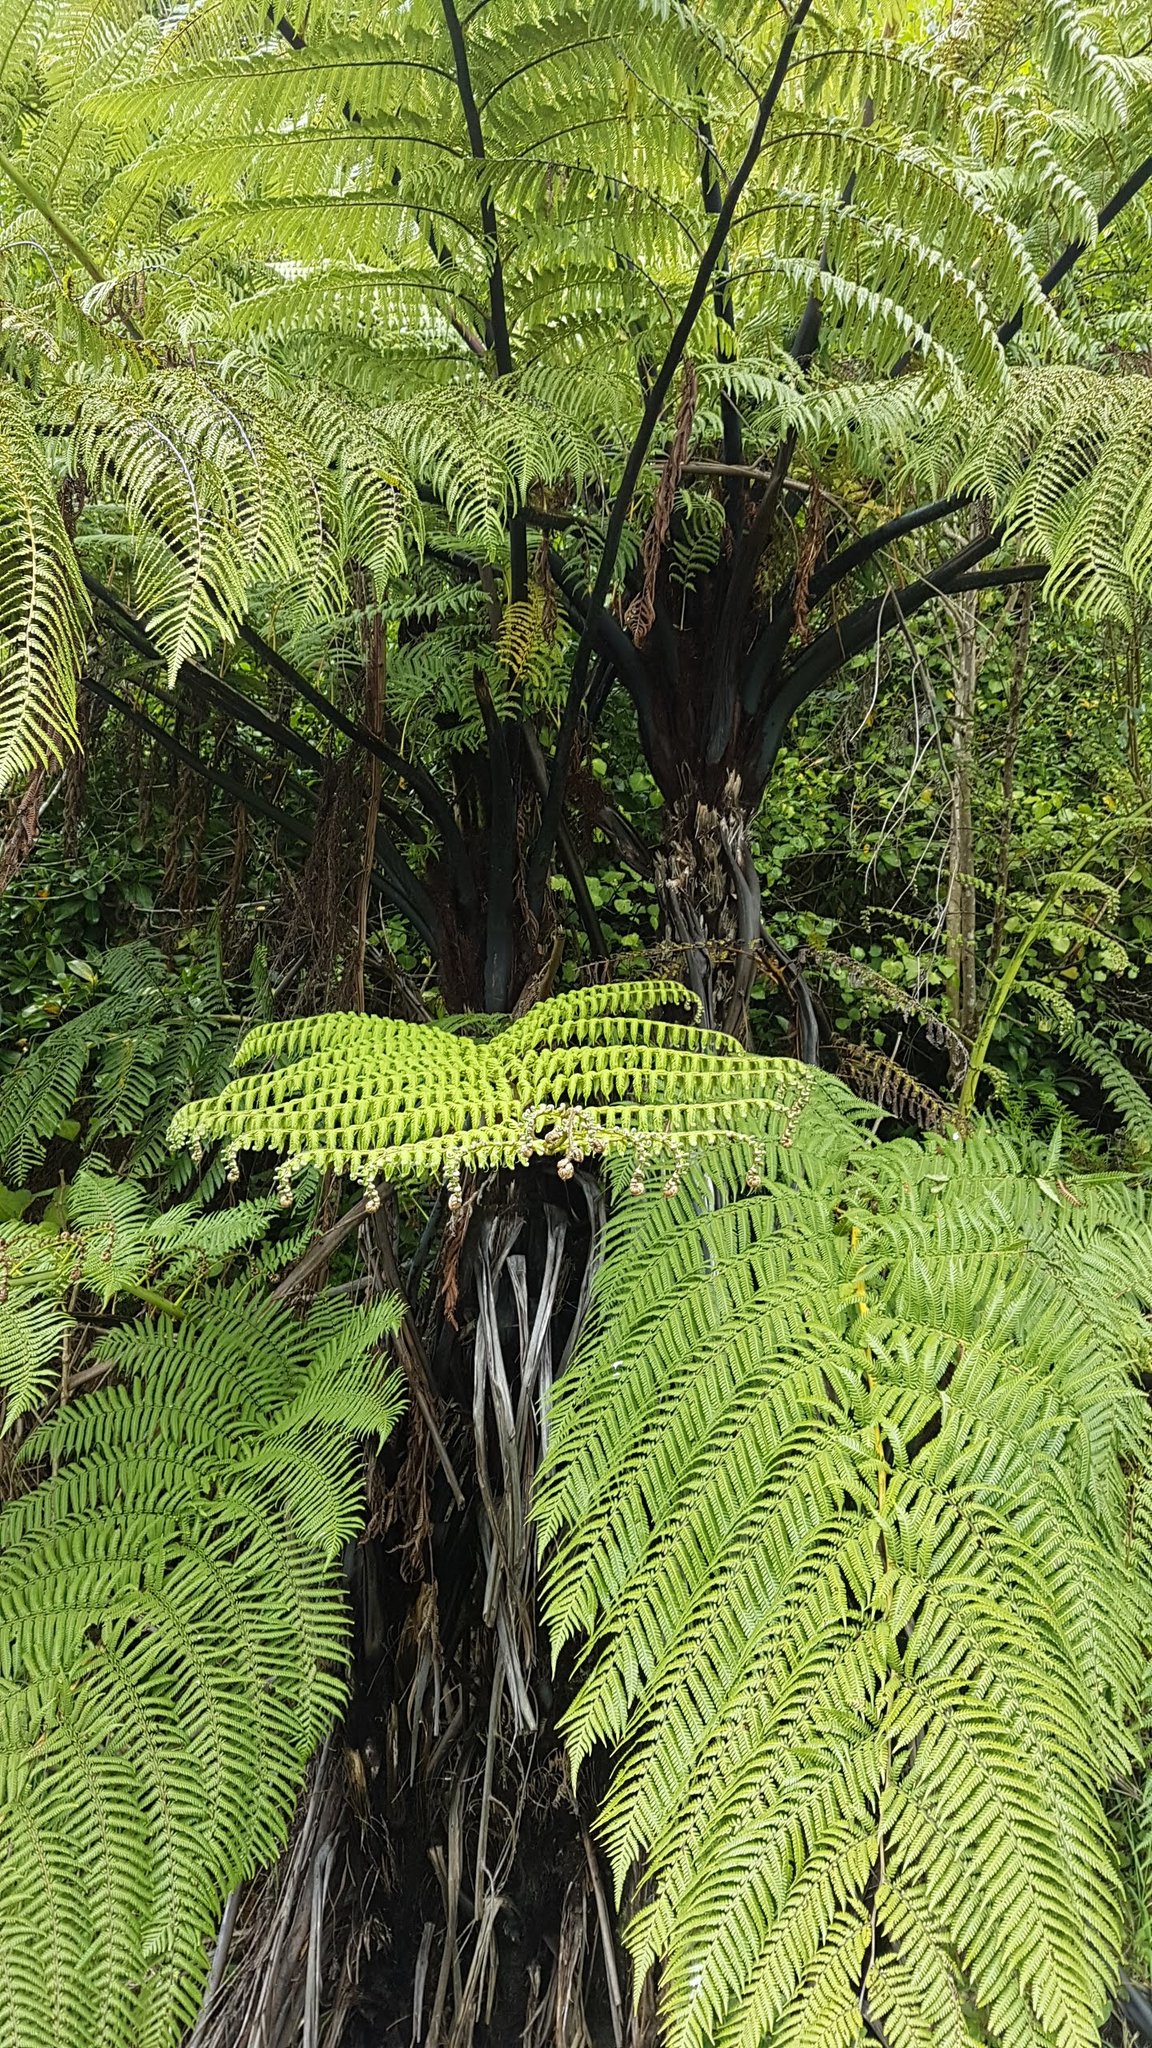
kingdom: Plantae
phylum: Tracheophyta
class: Polypodiopsida
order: Cyatheales
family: Cyatheaceae
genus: Sphaeropteris
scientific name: Sphaeropteris medullaris
